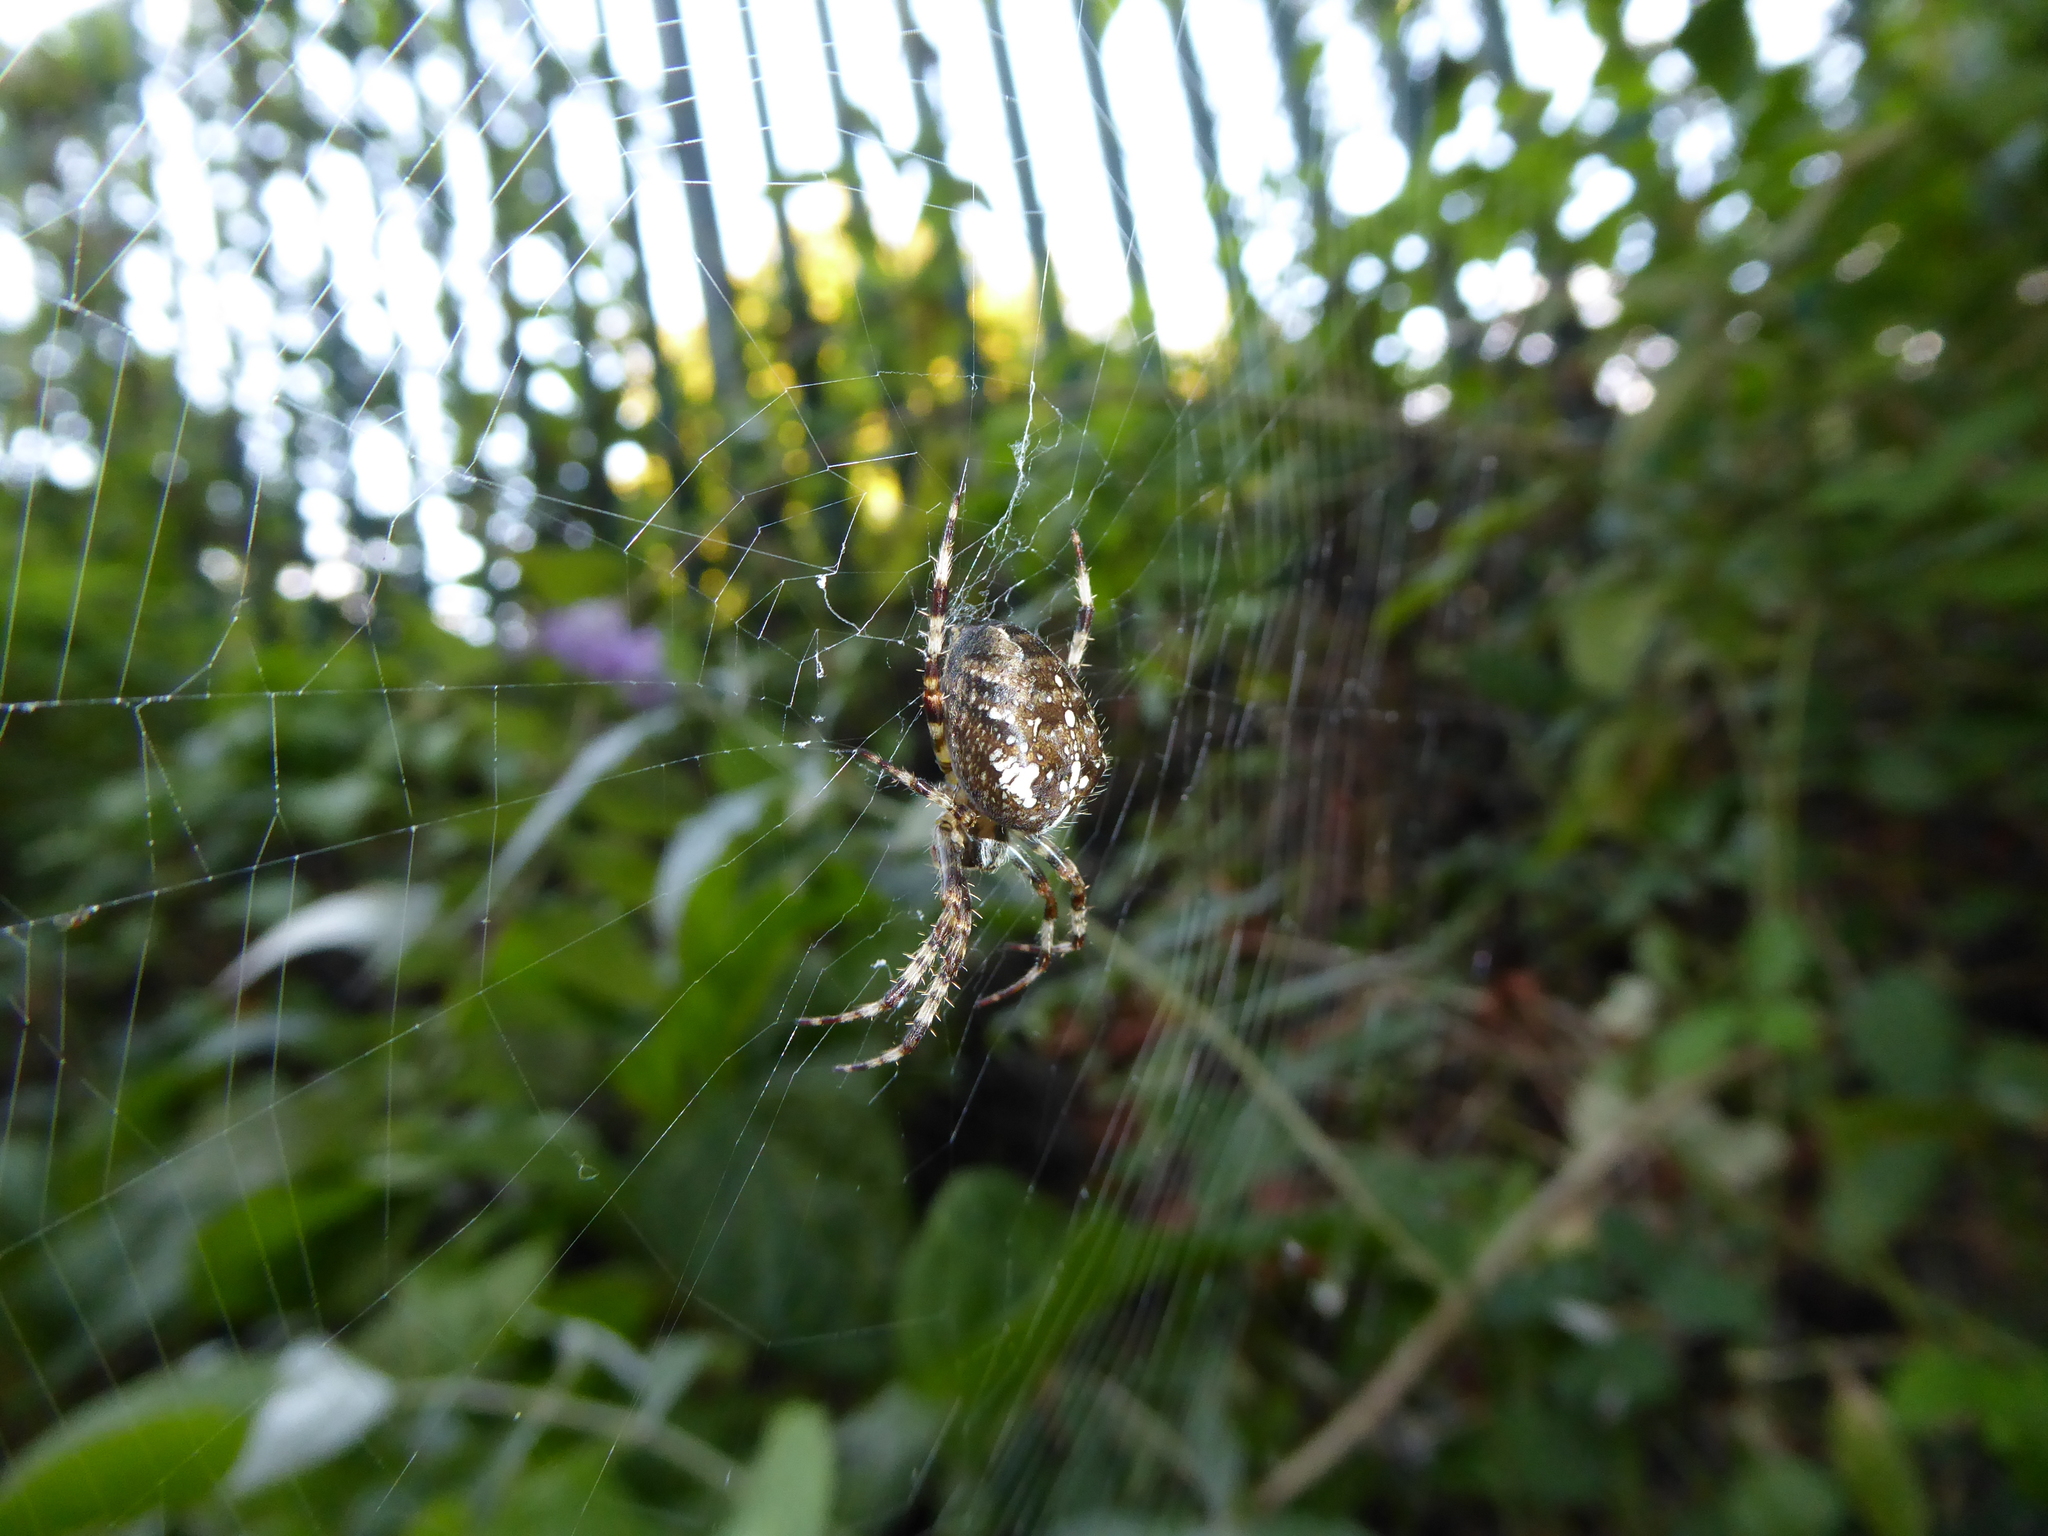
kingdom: Animalia
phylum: Arthropoda
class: Arachnida
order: Araneae
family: Araneidae
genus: Araneus
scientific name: Araneus diadematus
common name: Cross orbweaver
